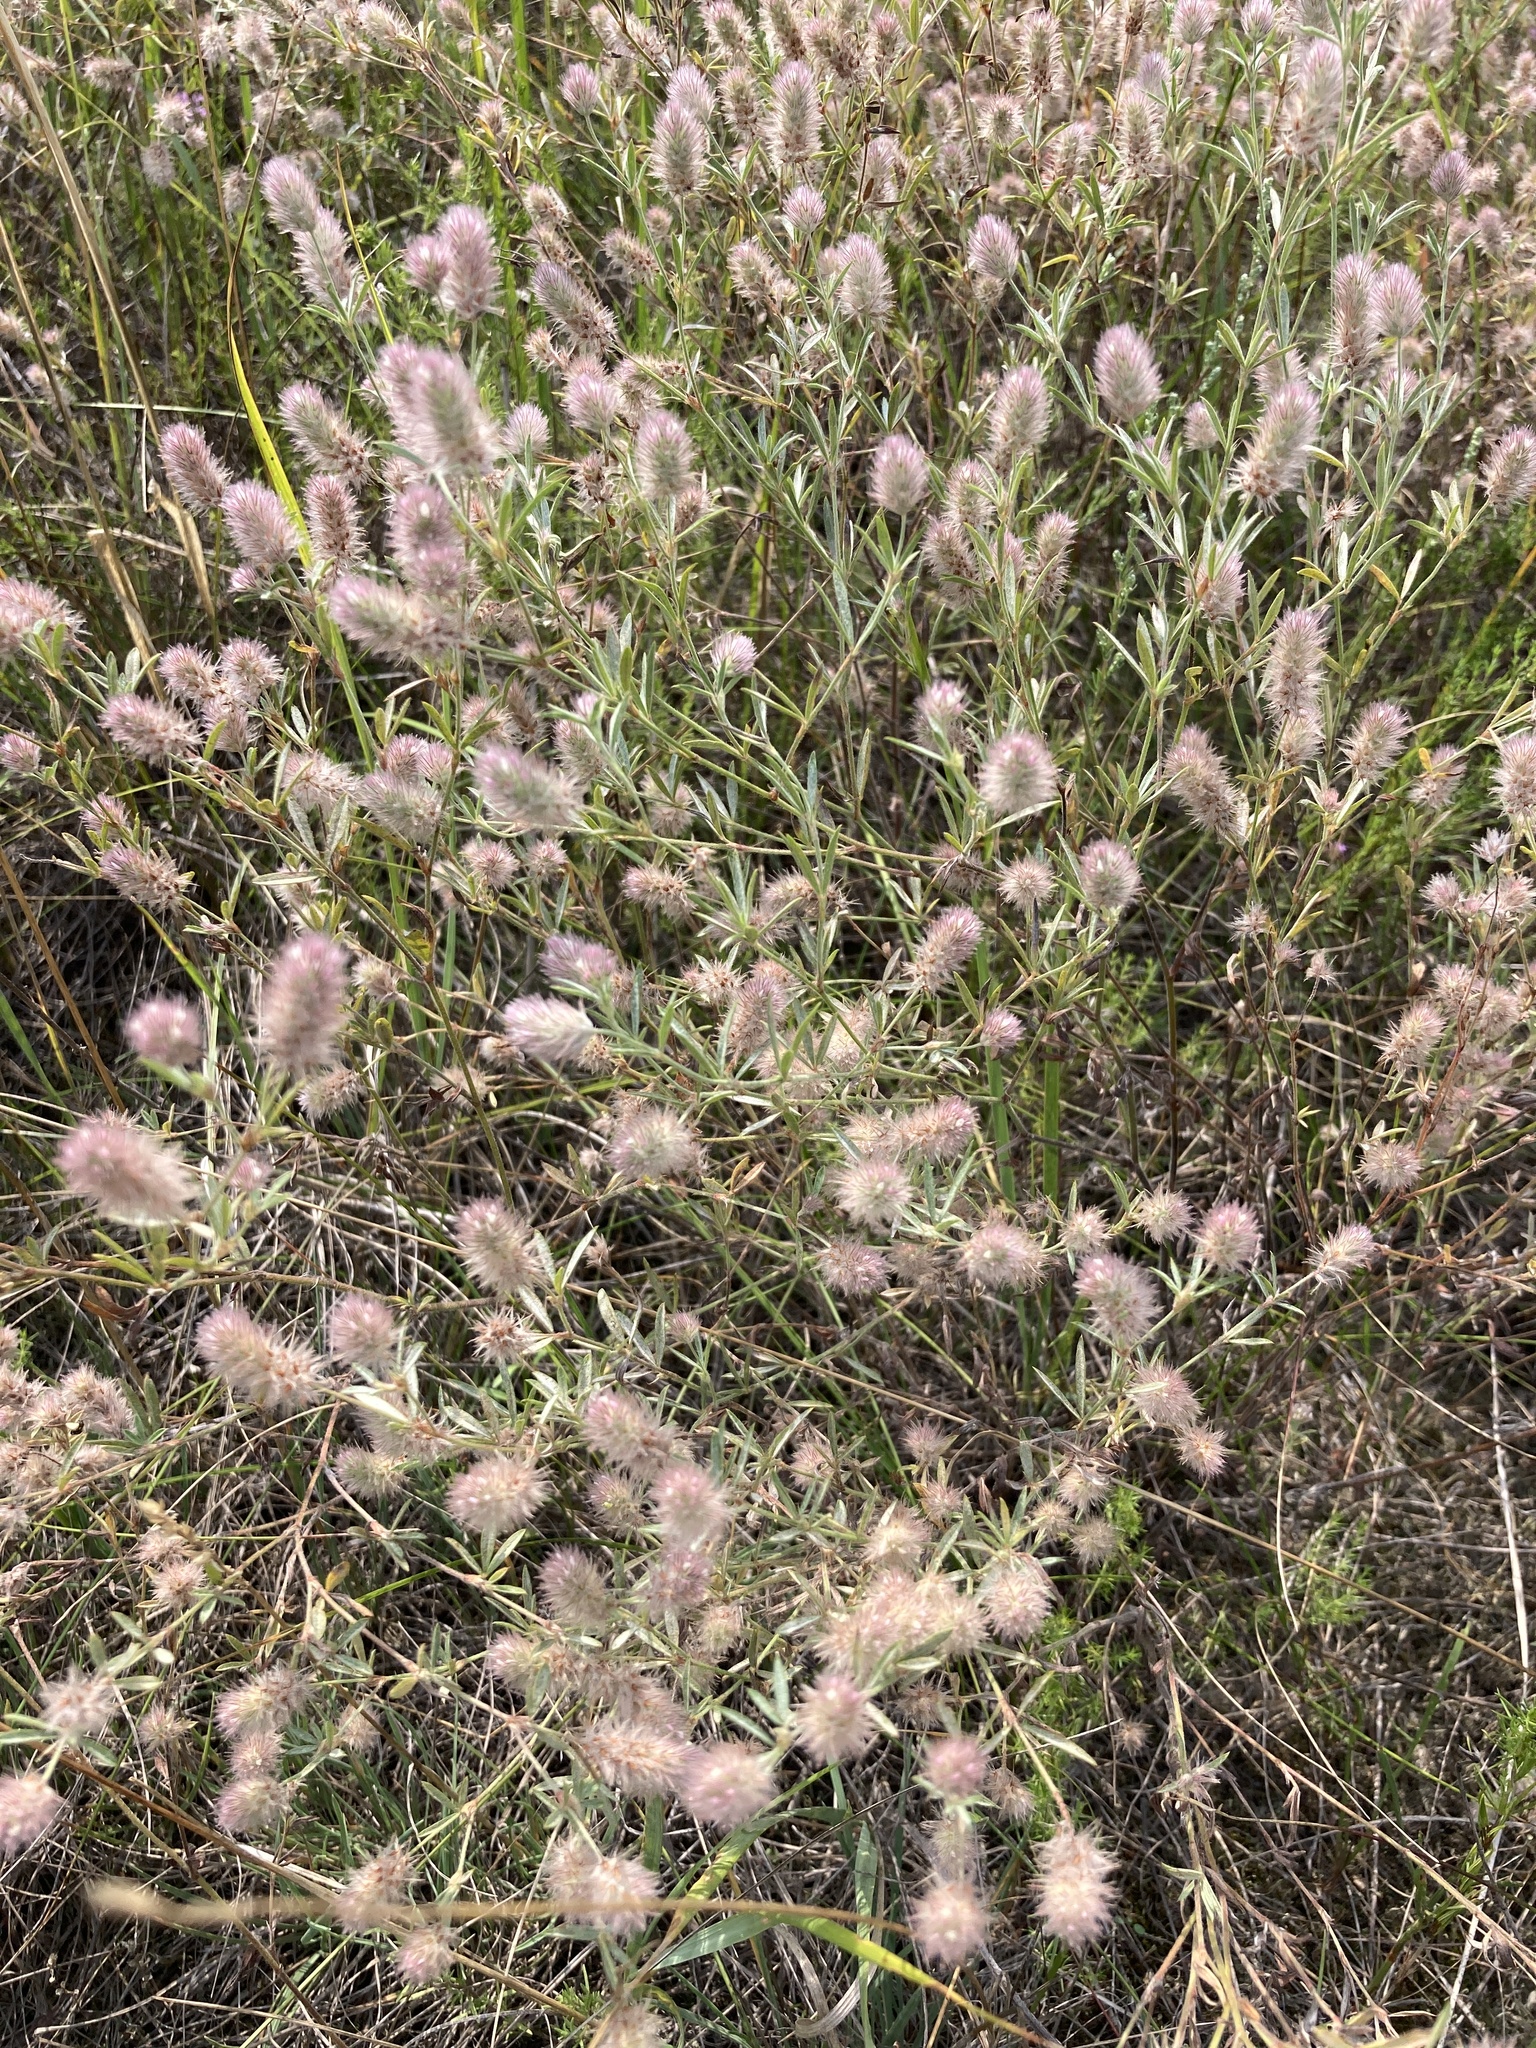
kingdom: Plantae
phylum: Tracheophyta
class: Magnoliopsida
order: Fabales
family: Fabaceae
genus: Trifolium
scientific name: Trifolium arvense
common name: Hare's-foot clover
